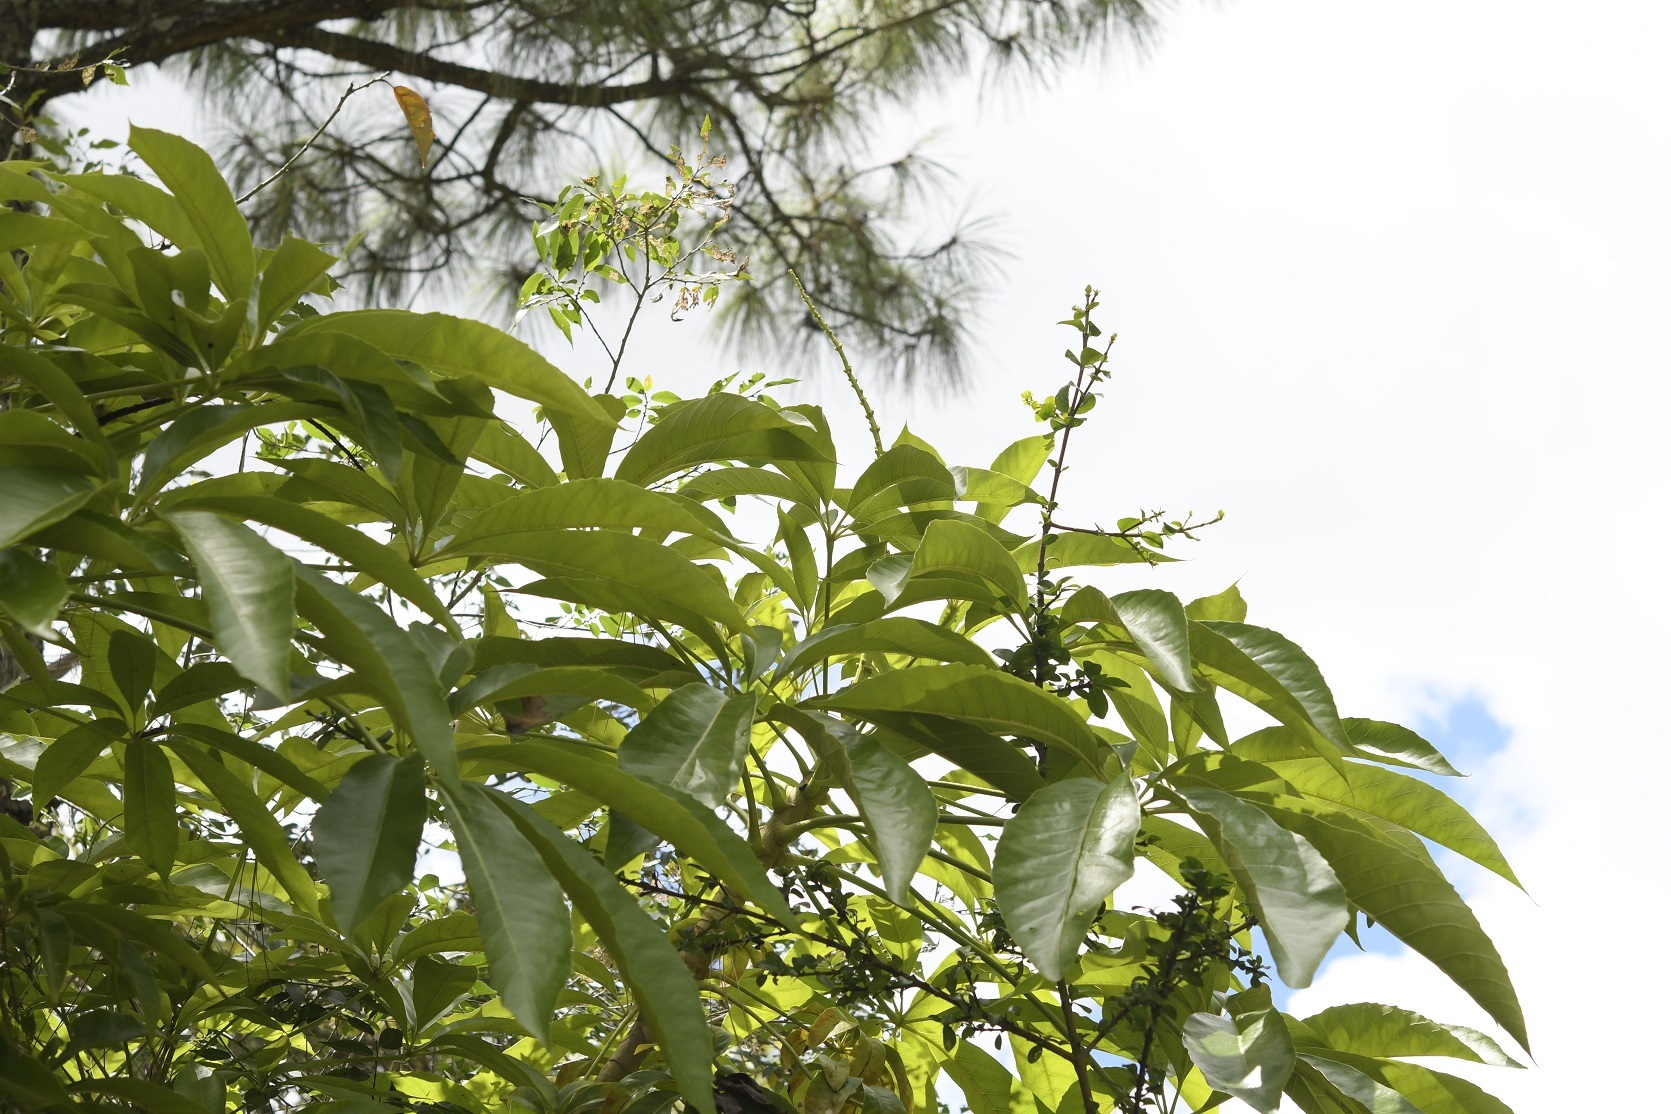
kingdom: Plantae
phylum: Tracheophyta
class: Magnoliopsida
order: Apiales
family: Araliaceae
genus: Oreopanax
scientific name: Oreopanax xalapensis
